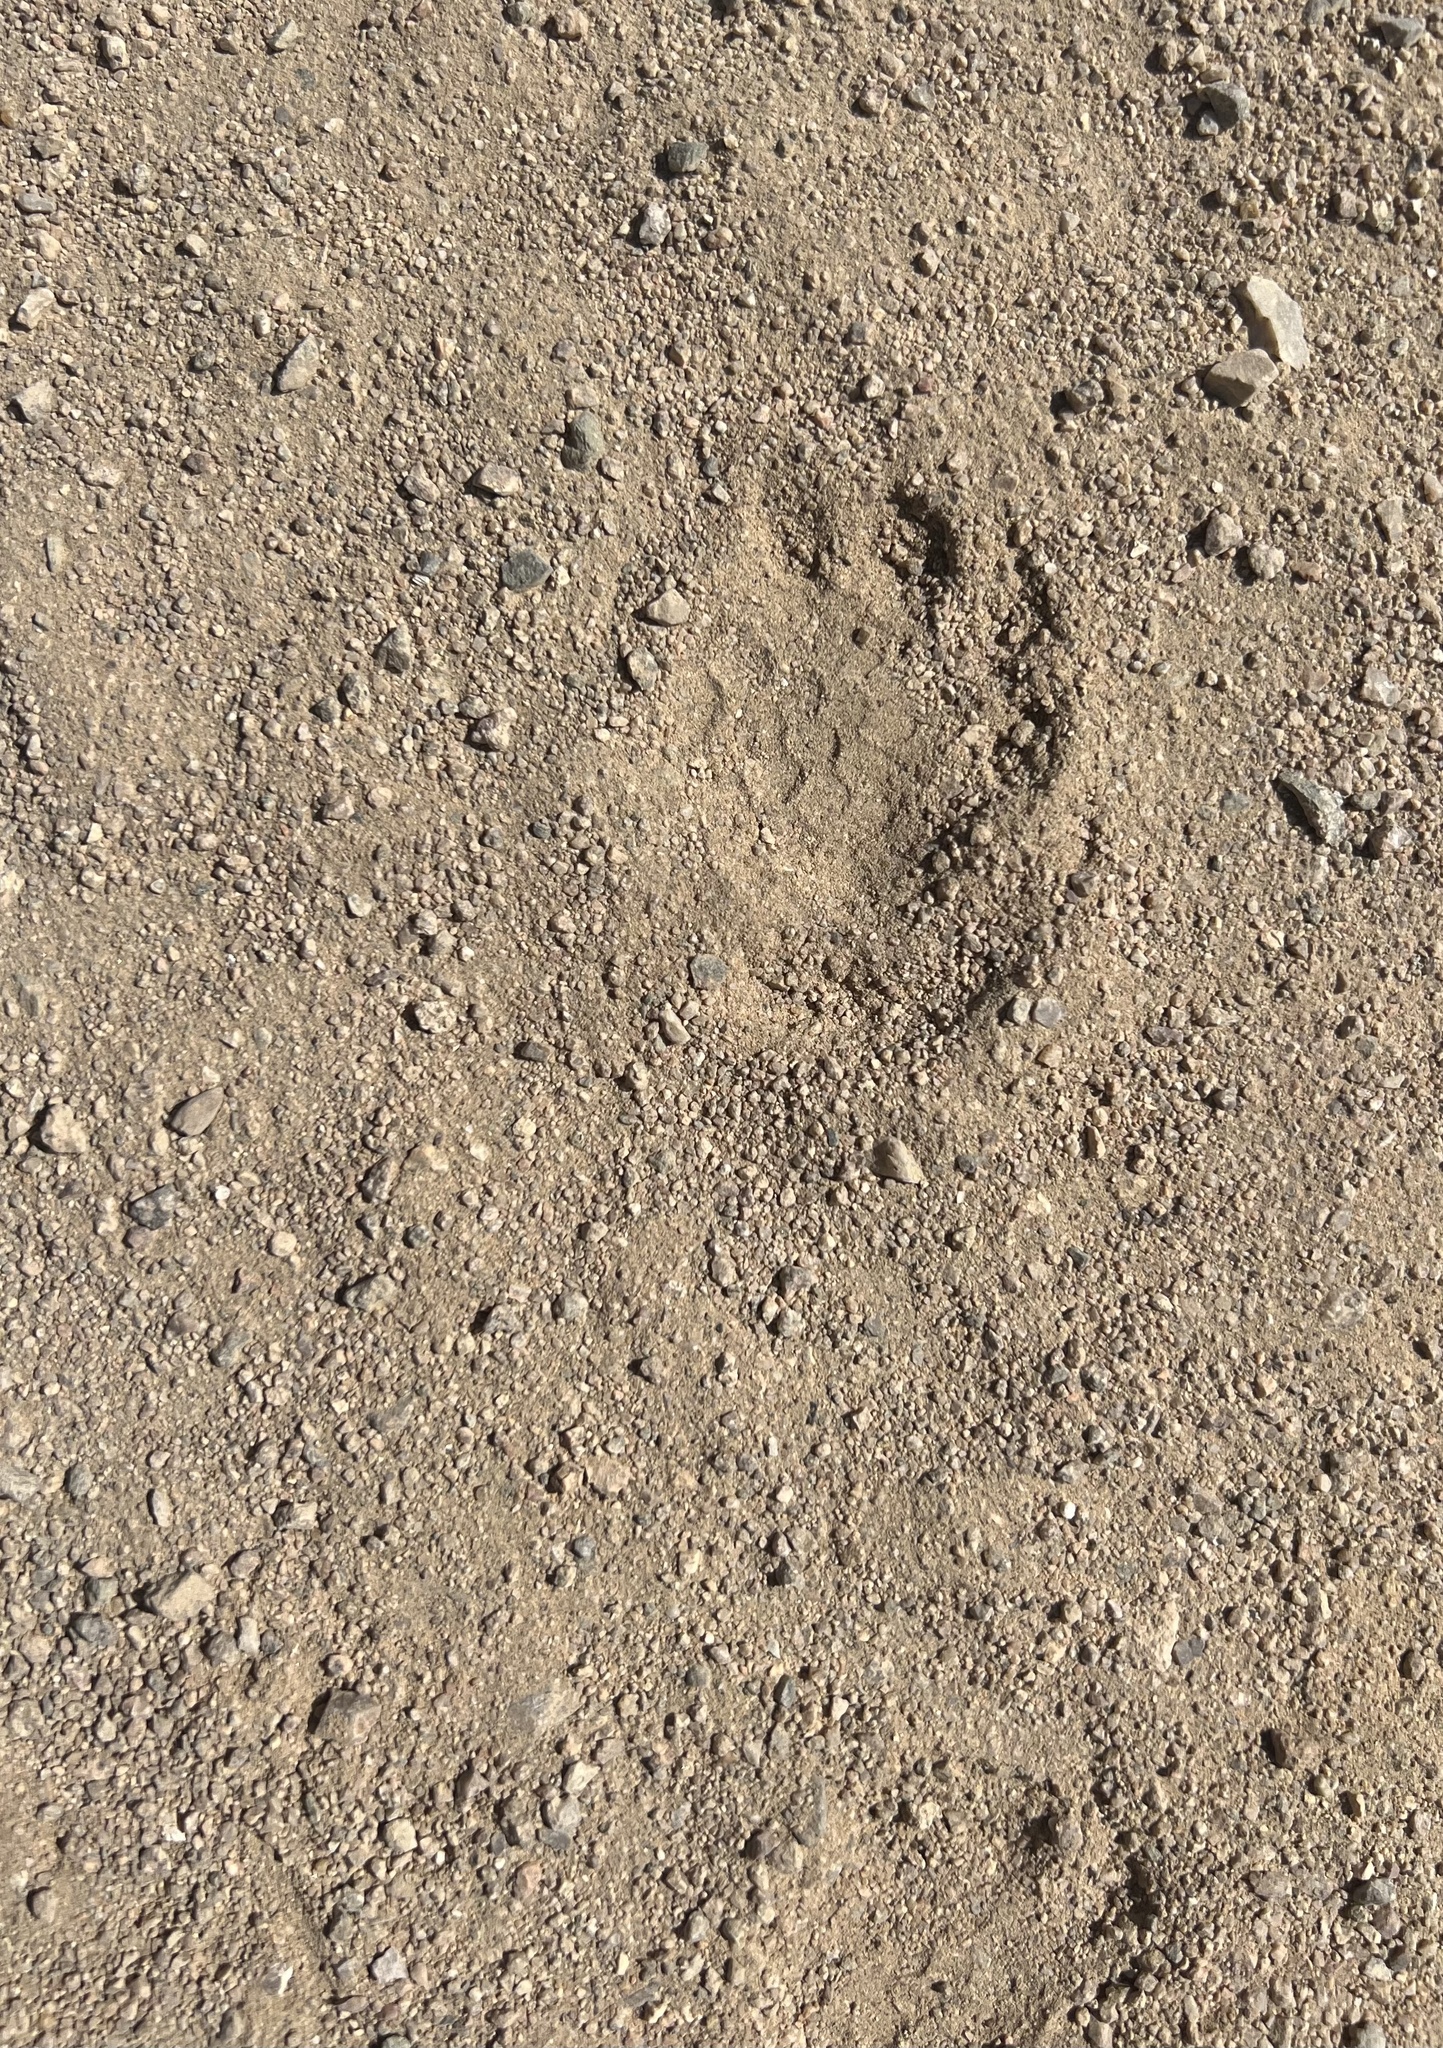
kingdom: Animalia
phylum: Chordata
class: Testudines
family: Testudinidae
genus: Gopherus
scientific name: Gopherus agassizii
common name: Mojave desert tortoise
